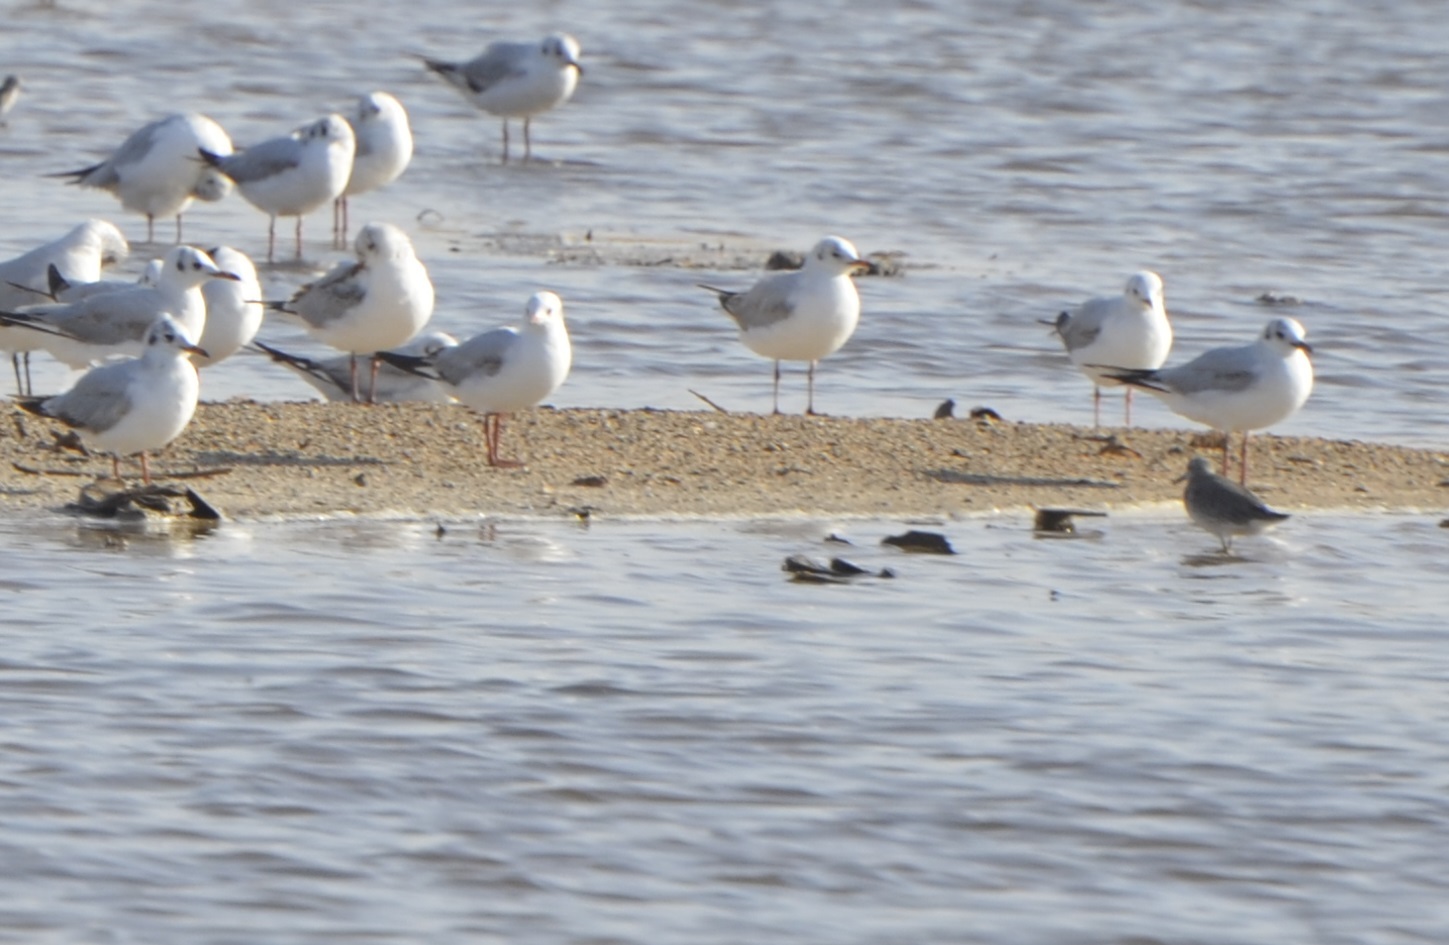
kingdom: Animalia
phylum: Chordata
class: Aves
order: Charadriiformes
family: Laridae
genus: Chroicocephalus
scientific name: Chroicocephalus ridibundus
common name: Black-headed gull
